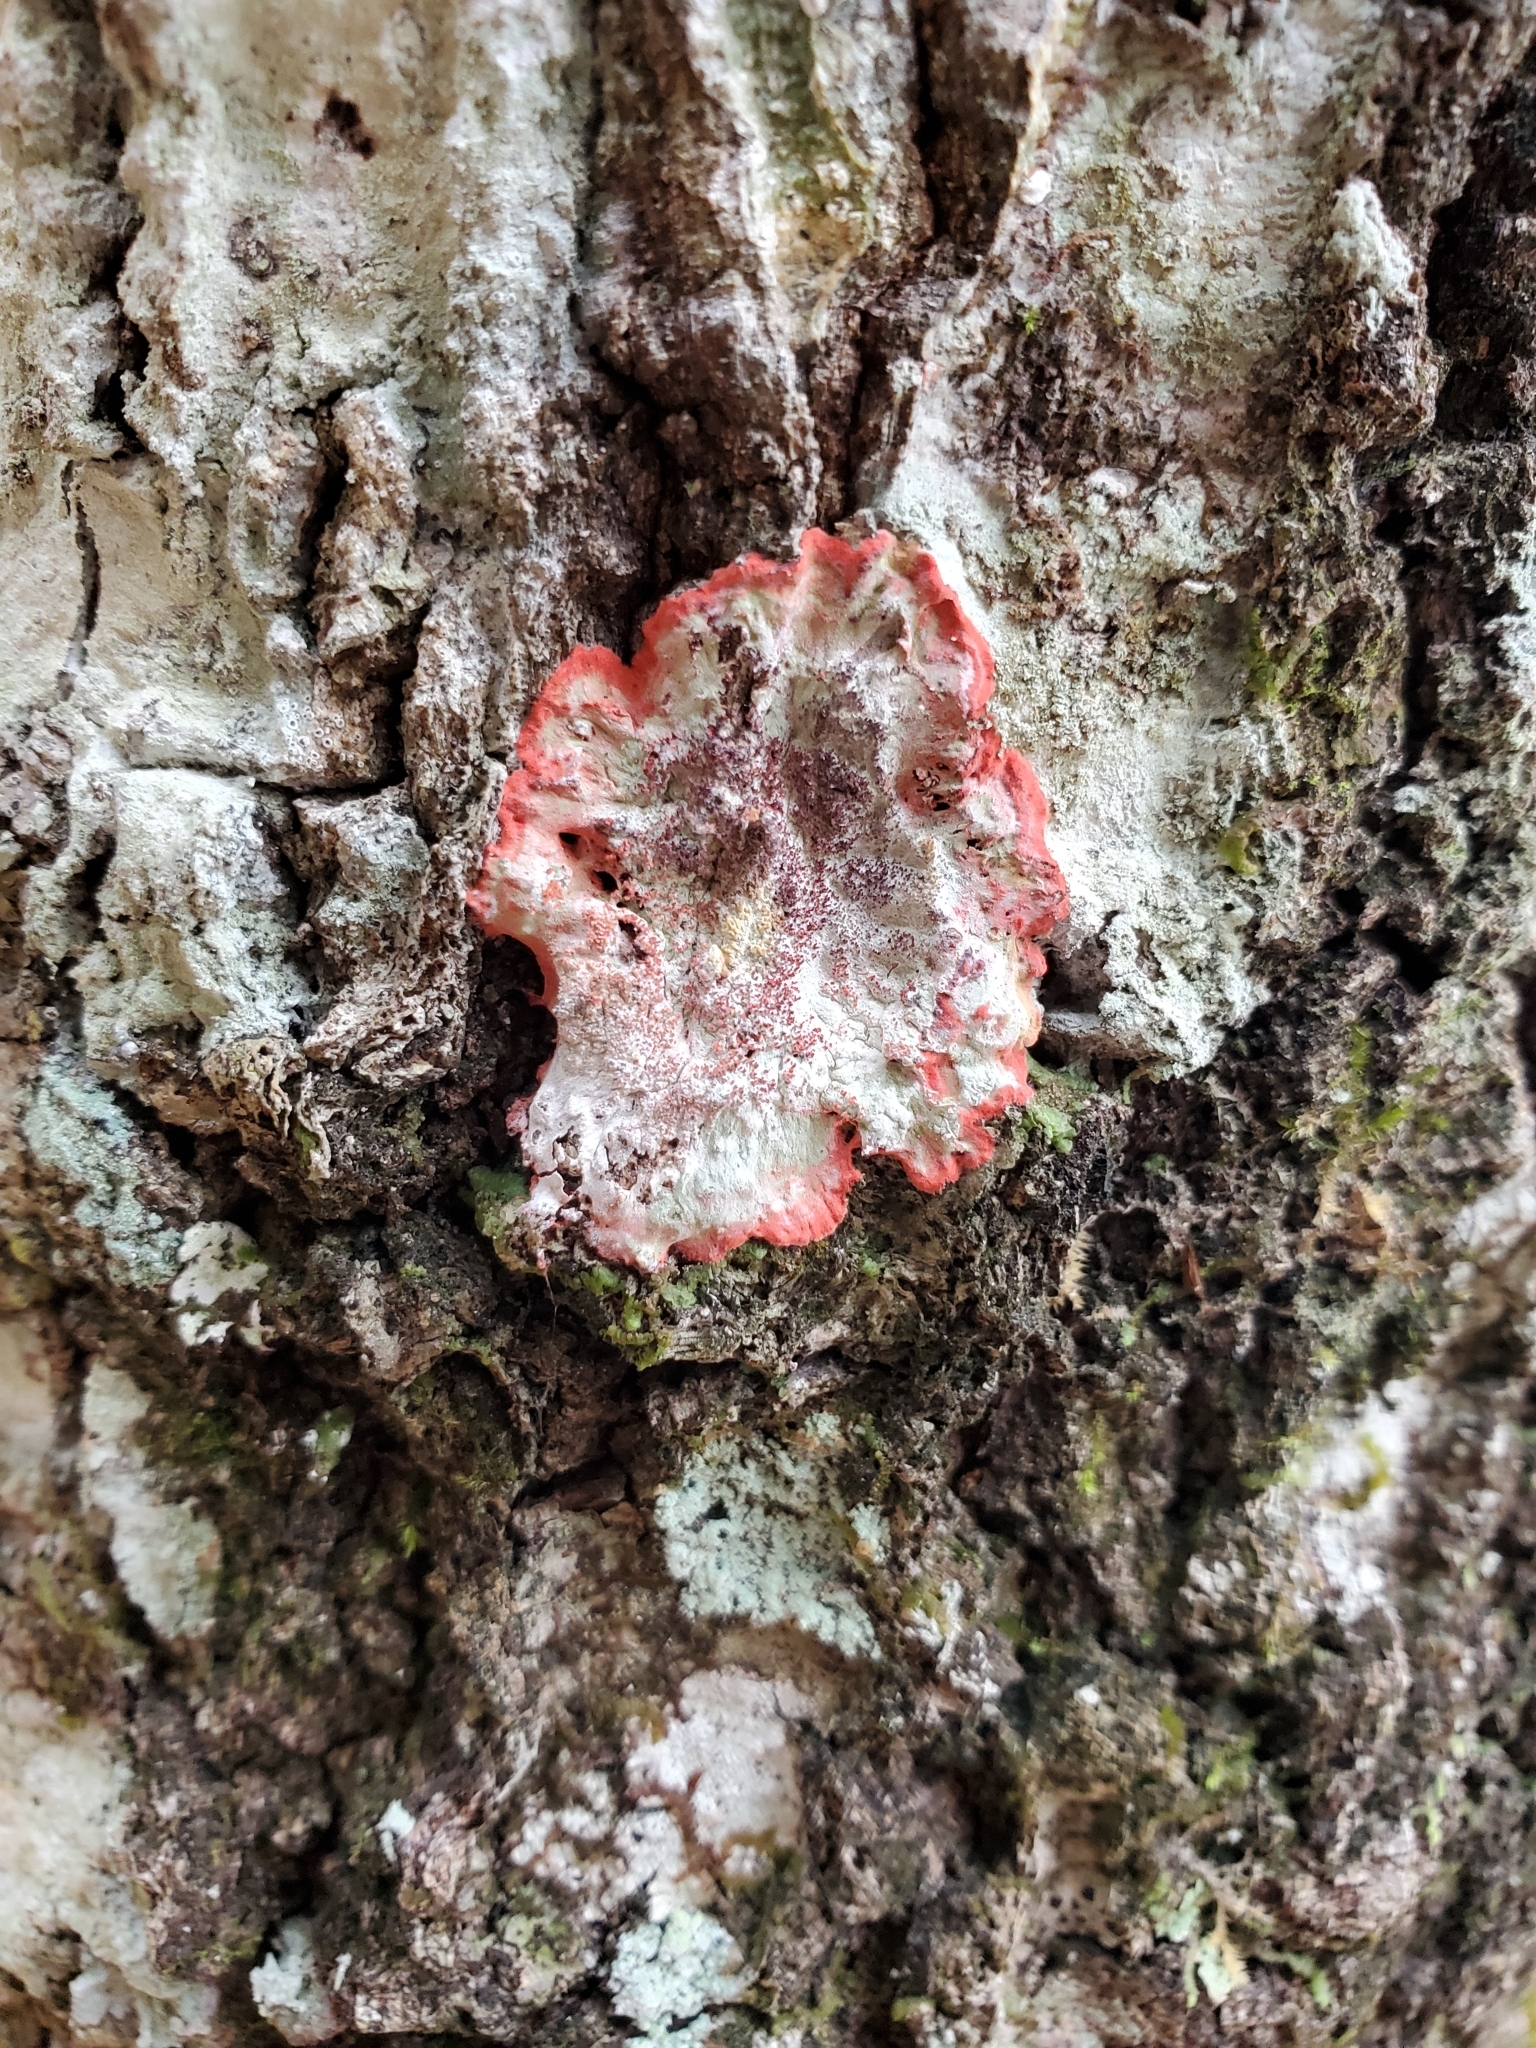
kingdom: Fungi
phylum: Ascomycota
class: Arthoniomycetes
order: Arthoniales
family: Arthoniaceae
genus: Herpothallon
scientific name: Herpothallon rubrocinctum
